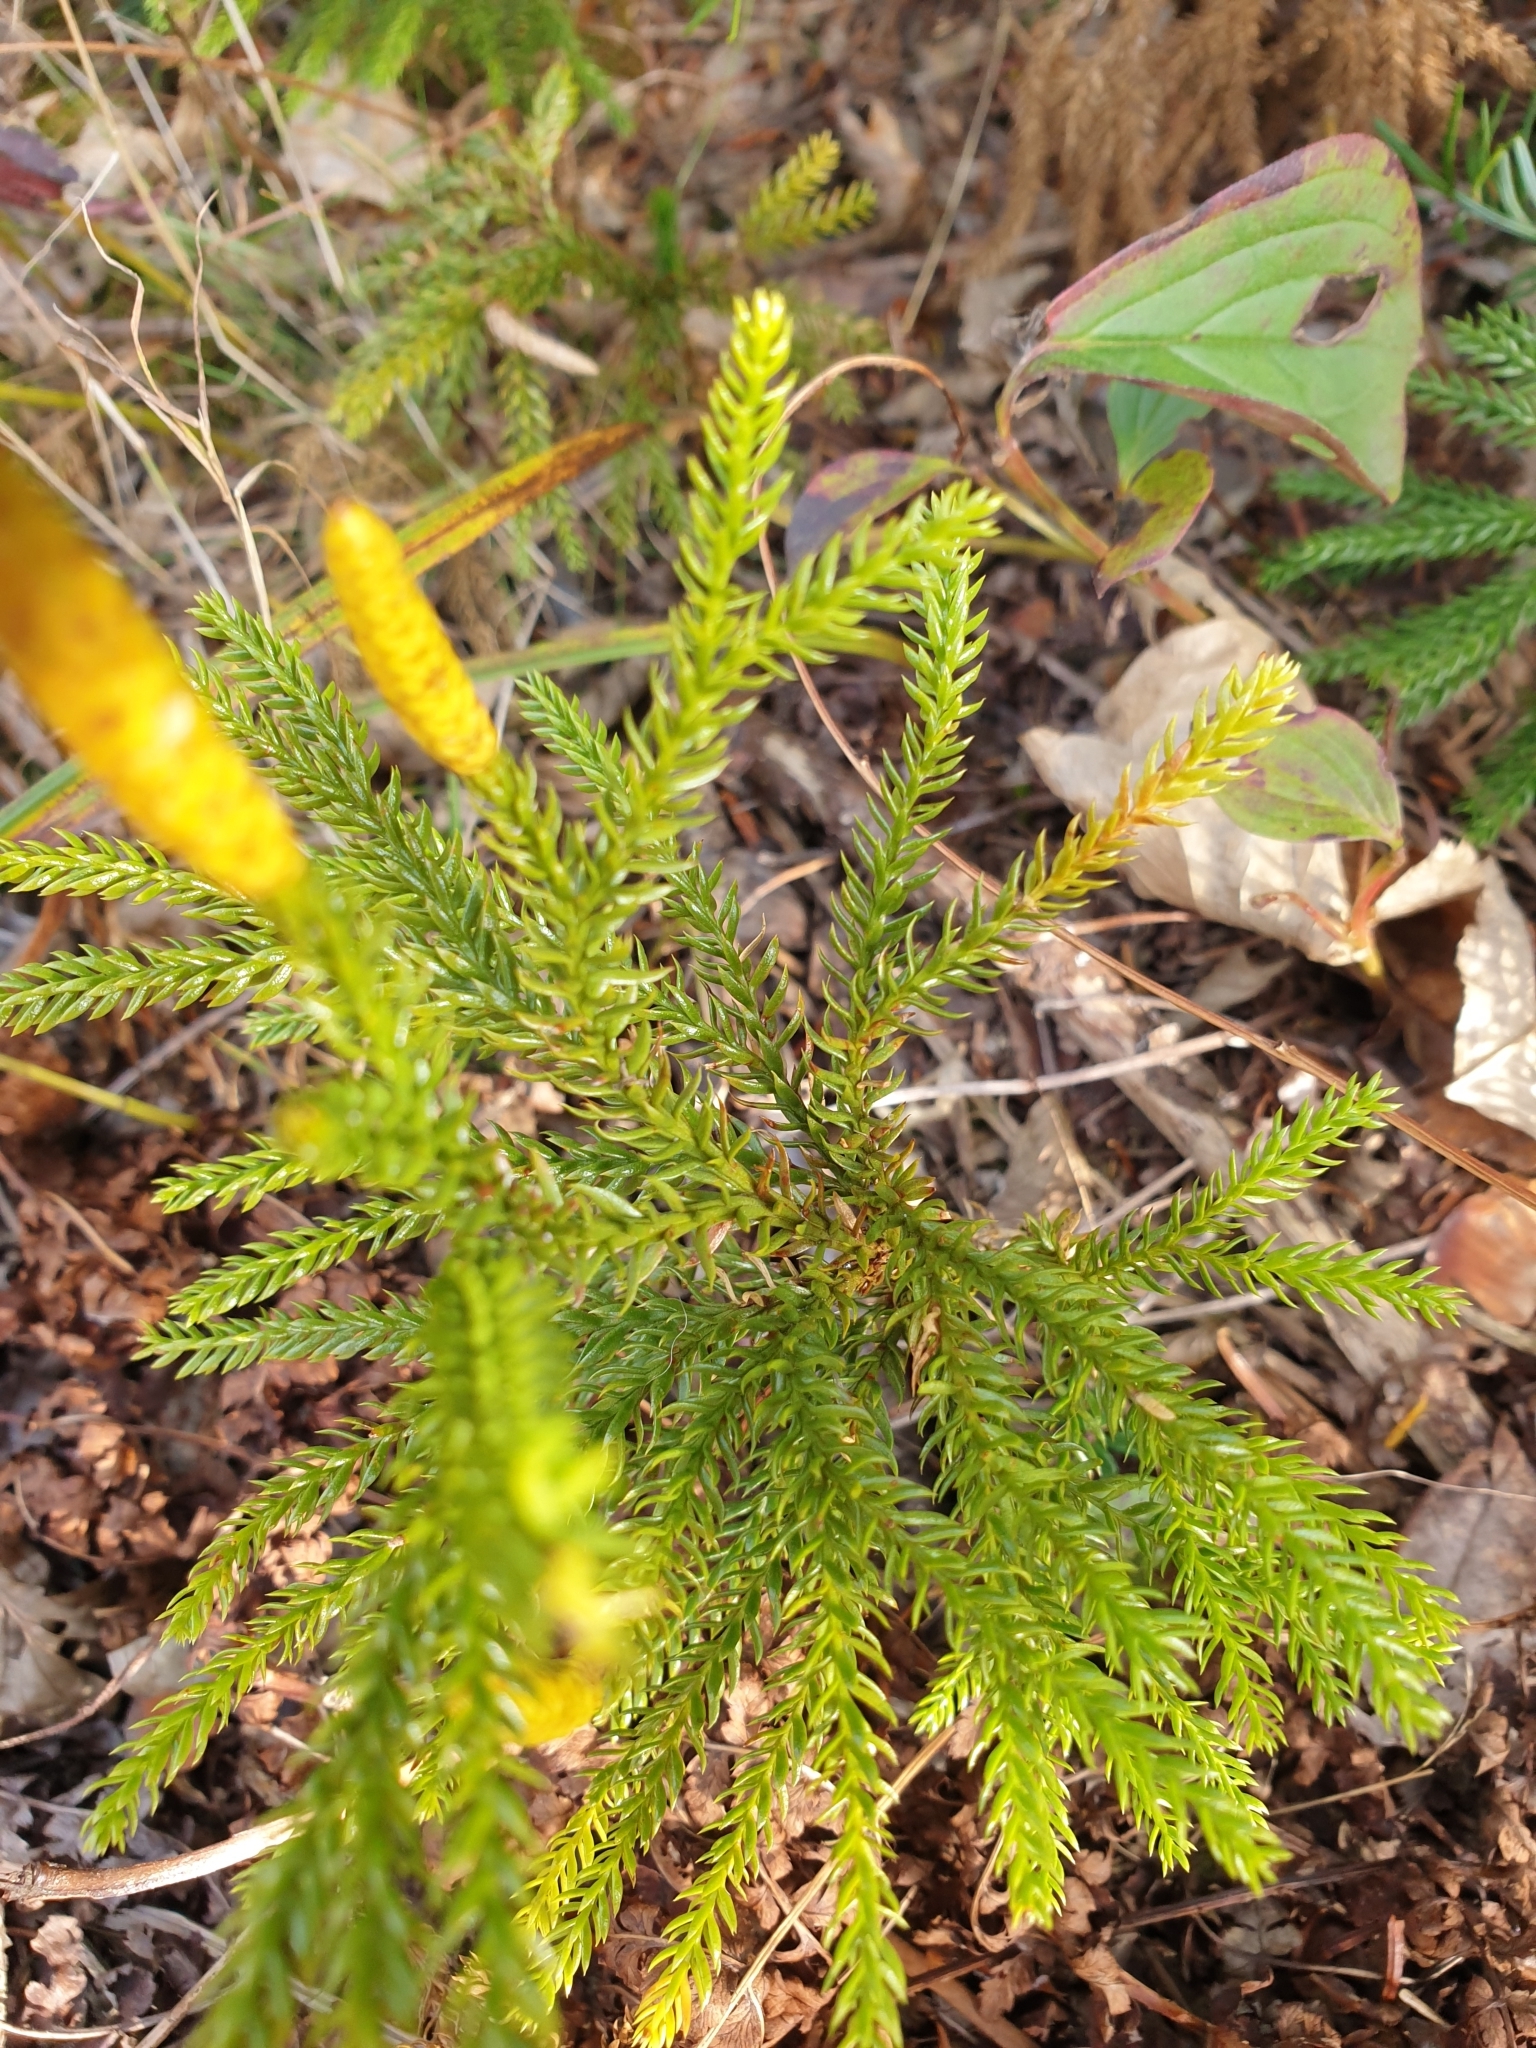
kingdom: Plantae
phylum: Tracheophyta
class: Lycopodiopsida
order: Lycopodiales
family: Lycopodiaceae
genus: Dendrolycopodium
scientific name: Dendrolycopodium dendroideum
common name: Northern tree-clubmoss
